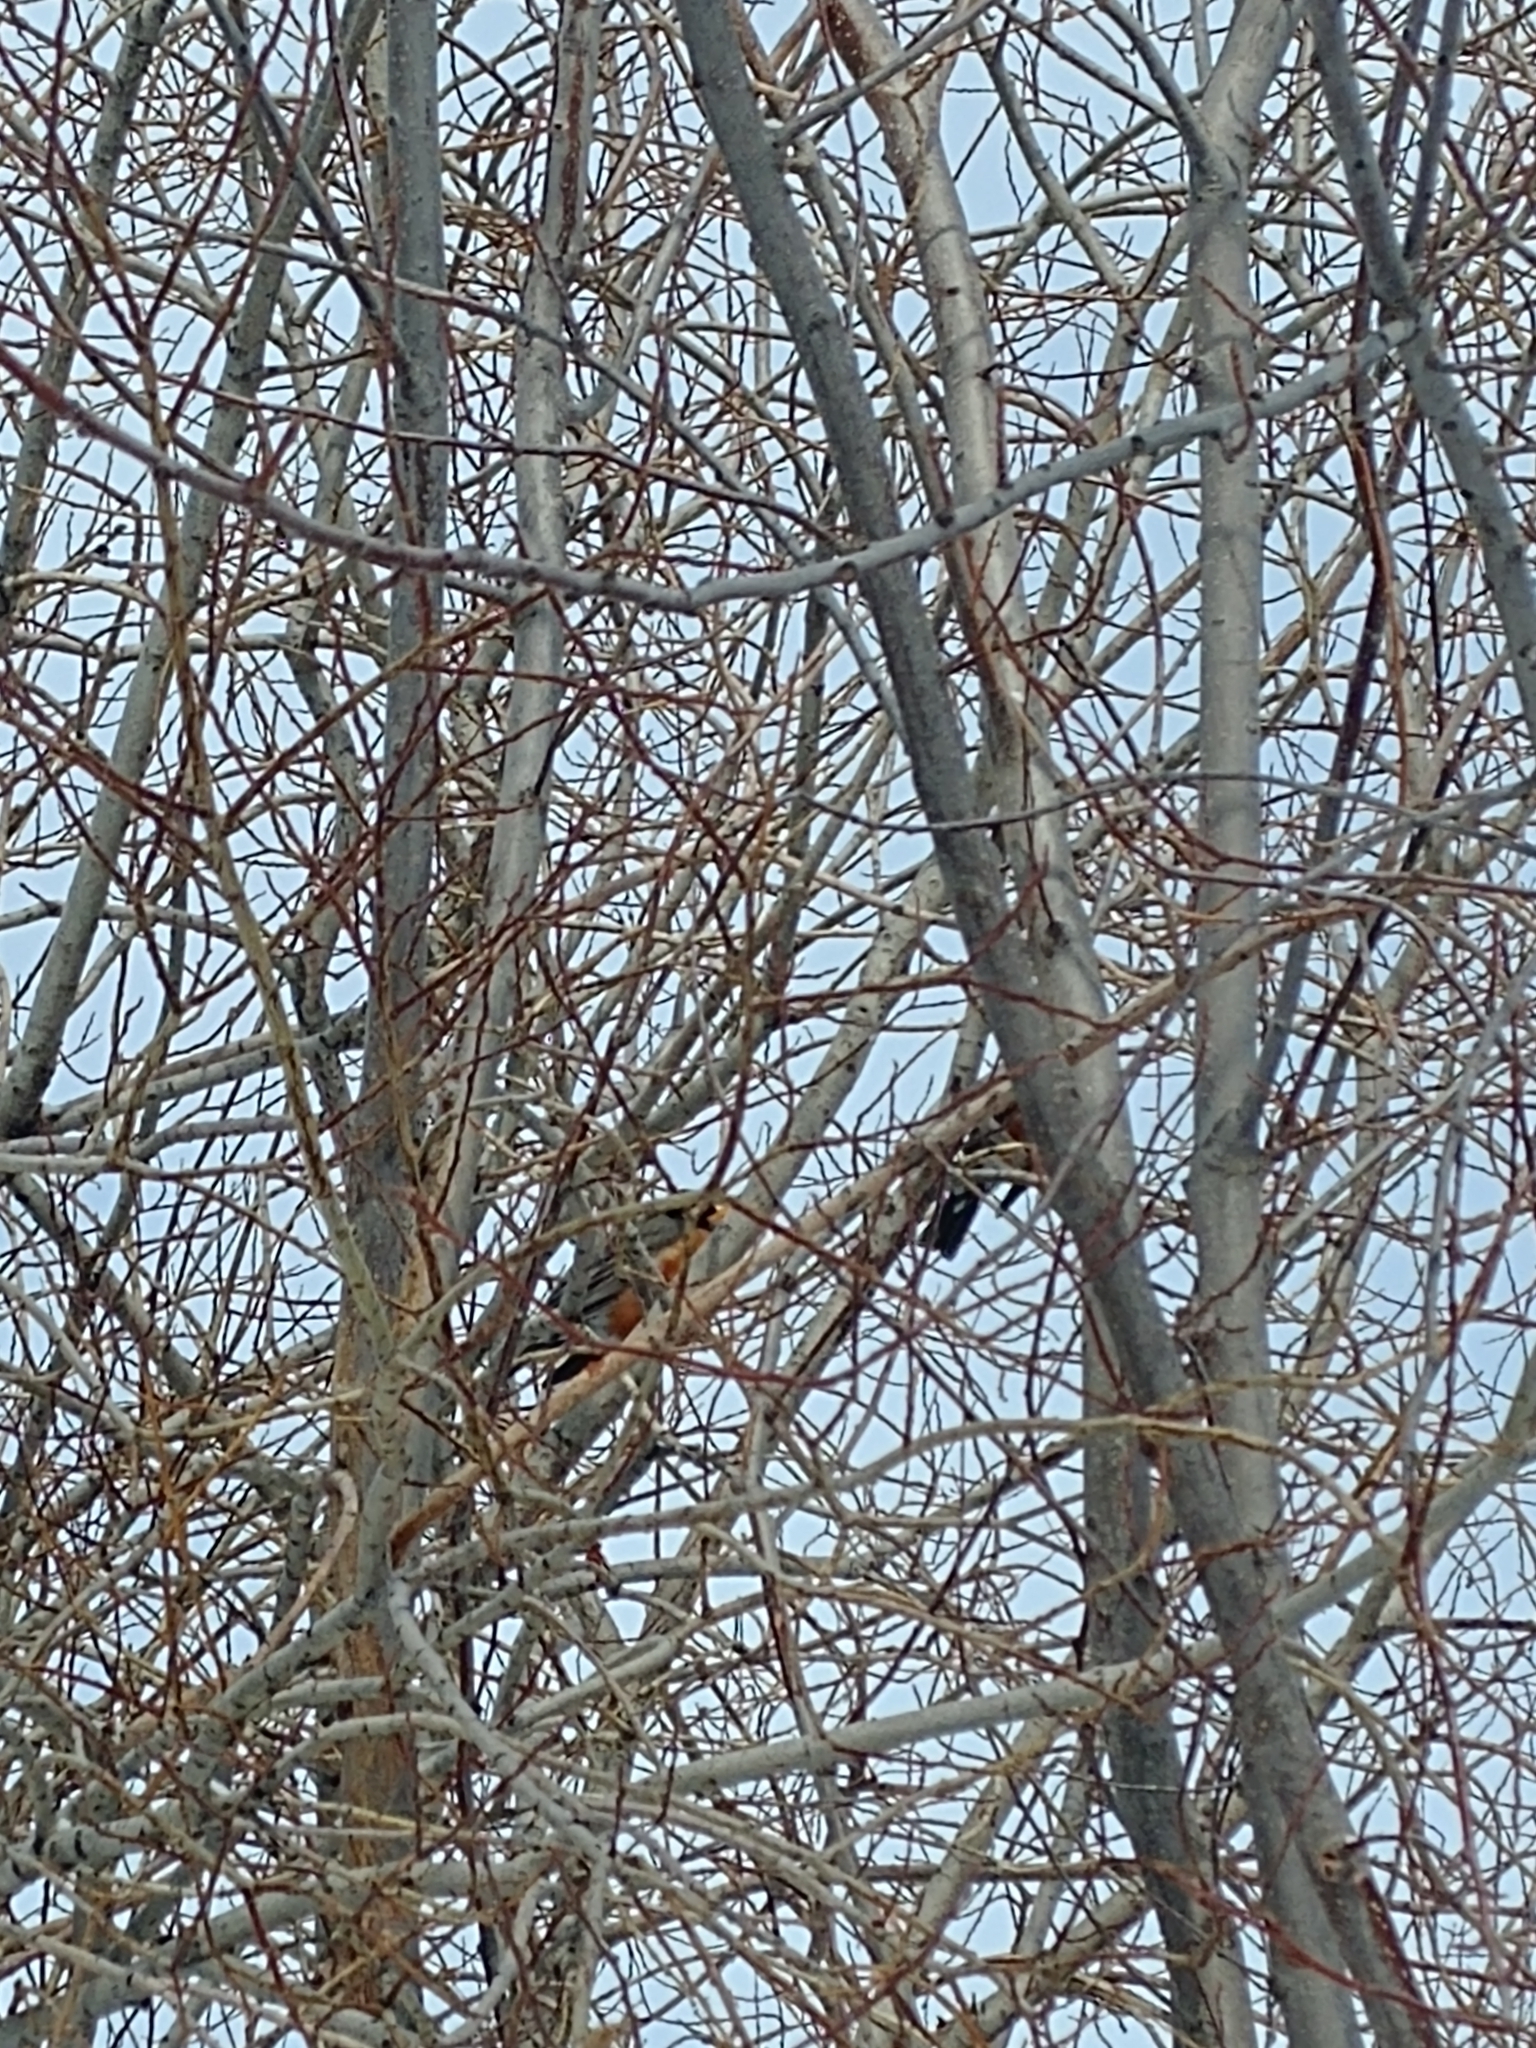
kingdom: Animalia
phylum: Chordata
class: Aves
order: Passeriformes
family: Turdidae
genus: Turdus
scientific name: Turdus migratorius
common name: American robin
